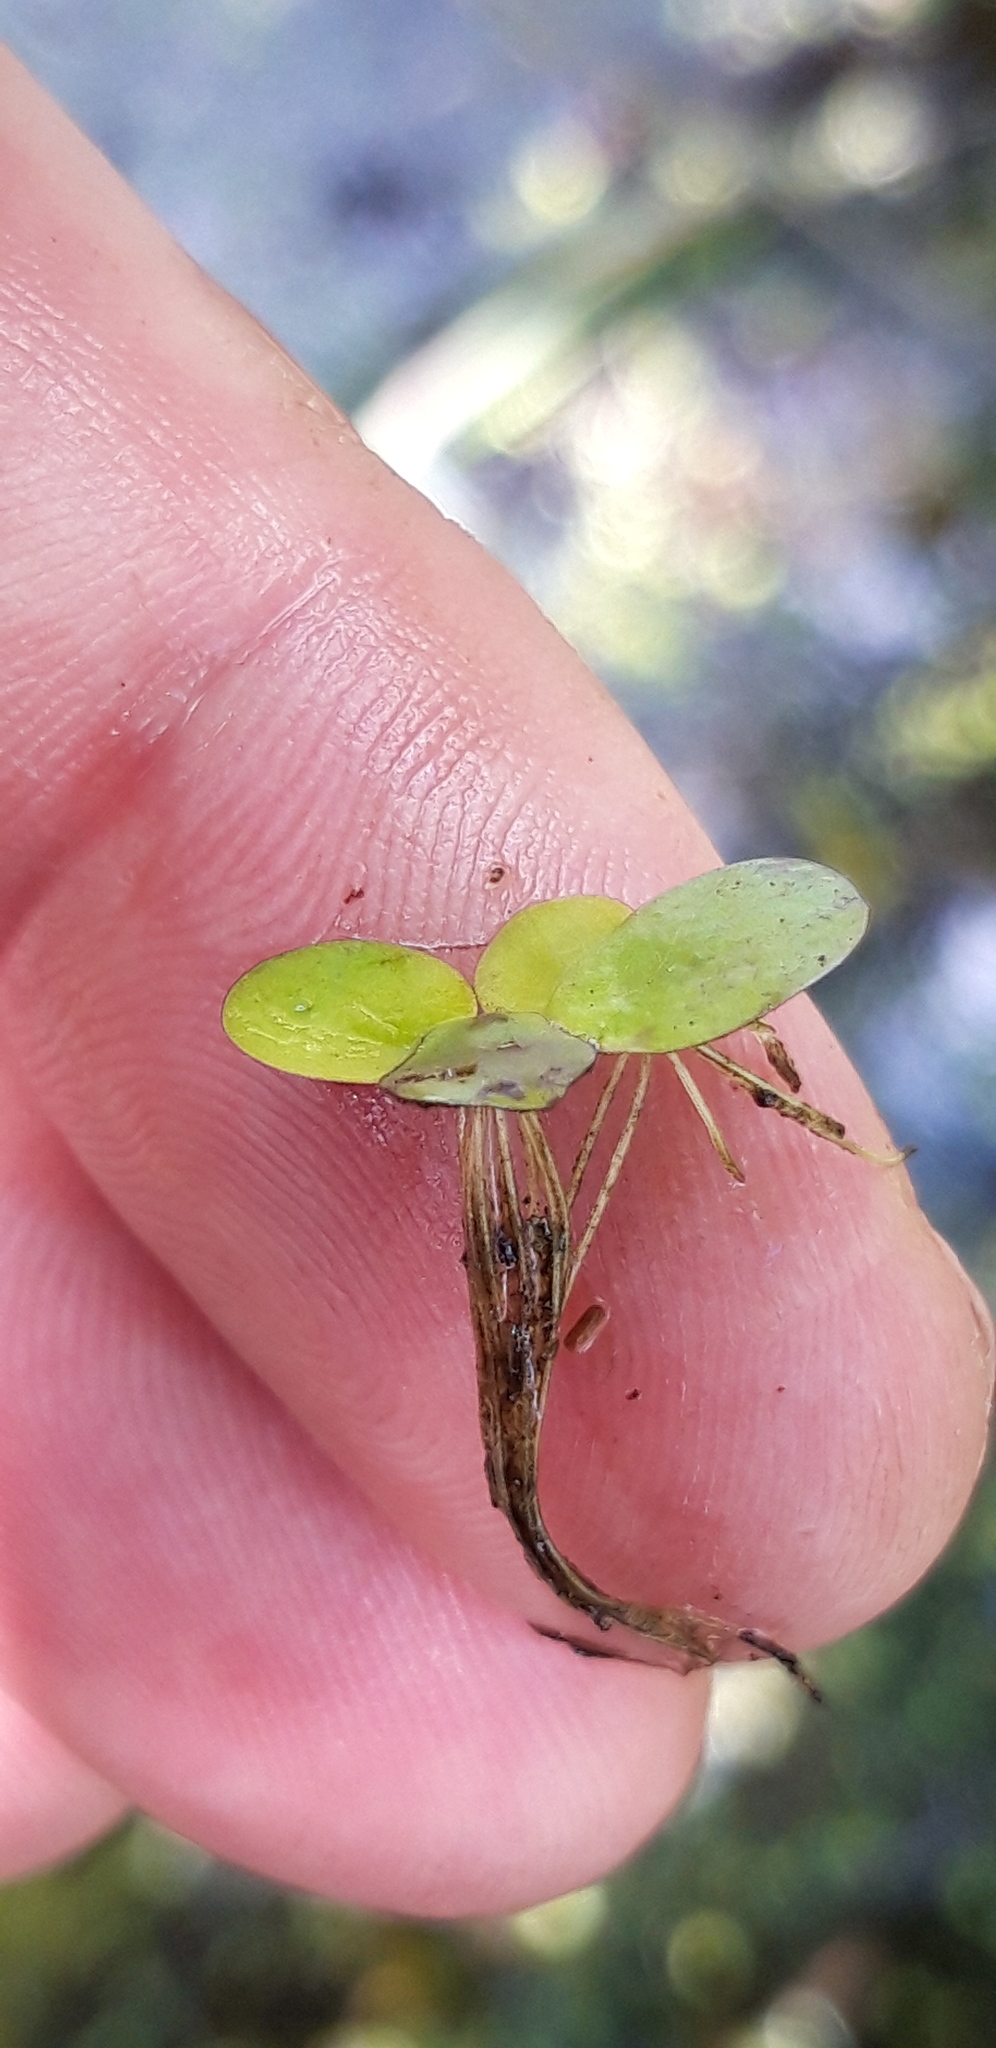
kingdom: Plantae
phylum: Tracheophyta
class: Liliopsida
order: Alismatales
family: Araceae
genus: Spirodela
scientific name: Spirodela polyrhiza
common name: Great duckweed
